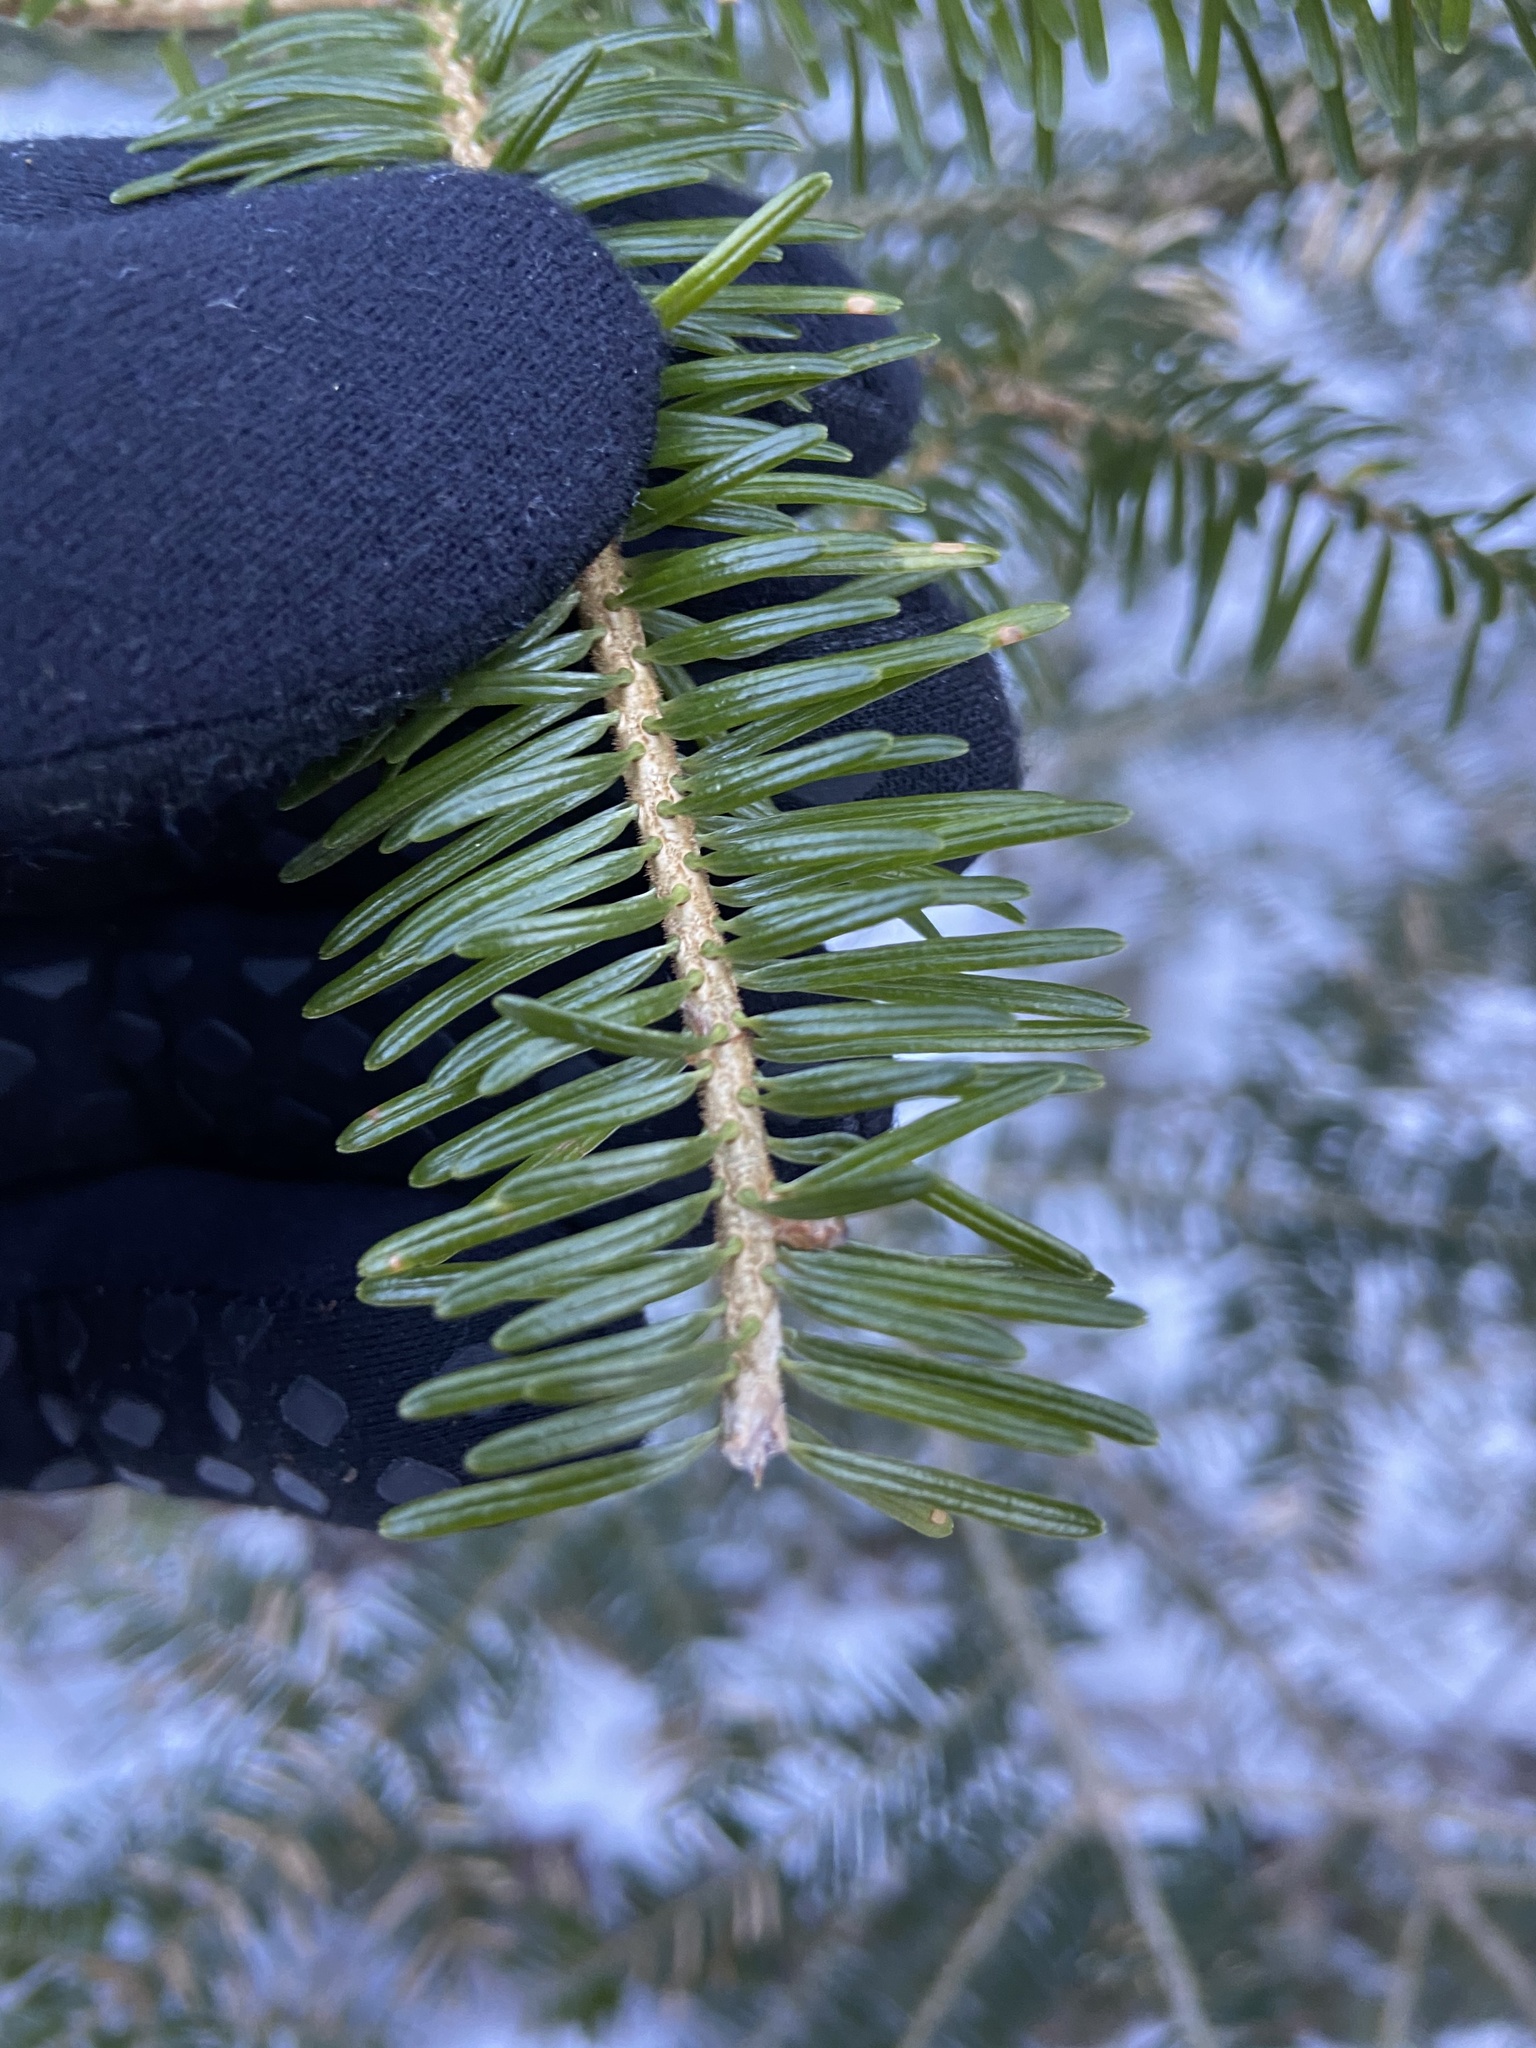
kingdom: Plantae
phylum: Tracheophyta
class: Pinopsida
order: Pinales
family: Pinaceae
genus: Abies
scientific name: Abies fraseri
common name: Fraser fir
